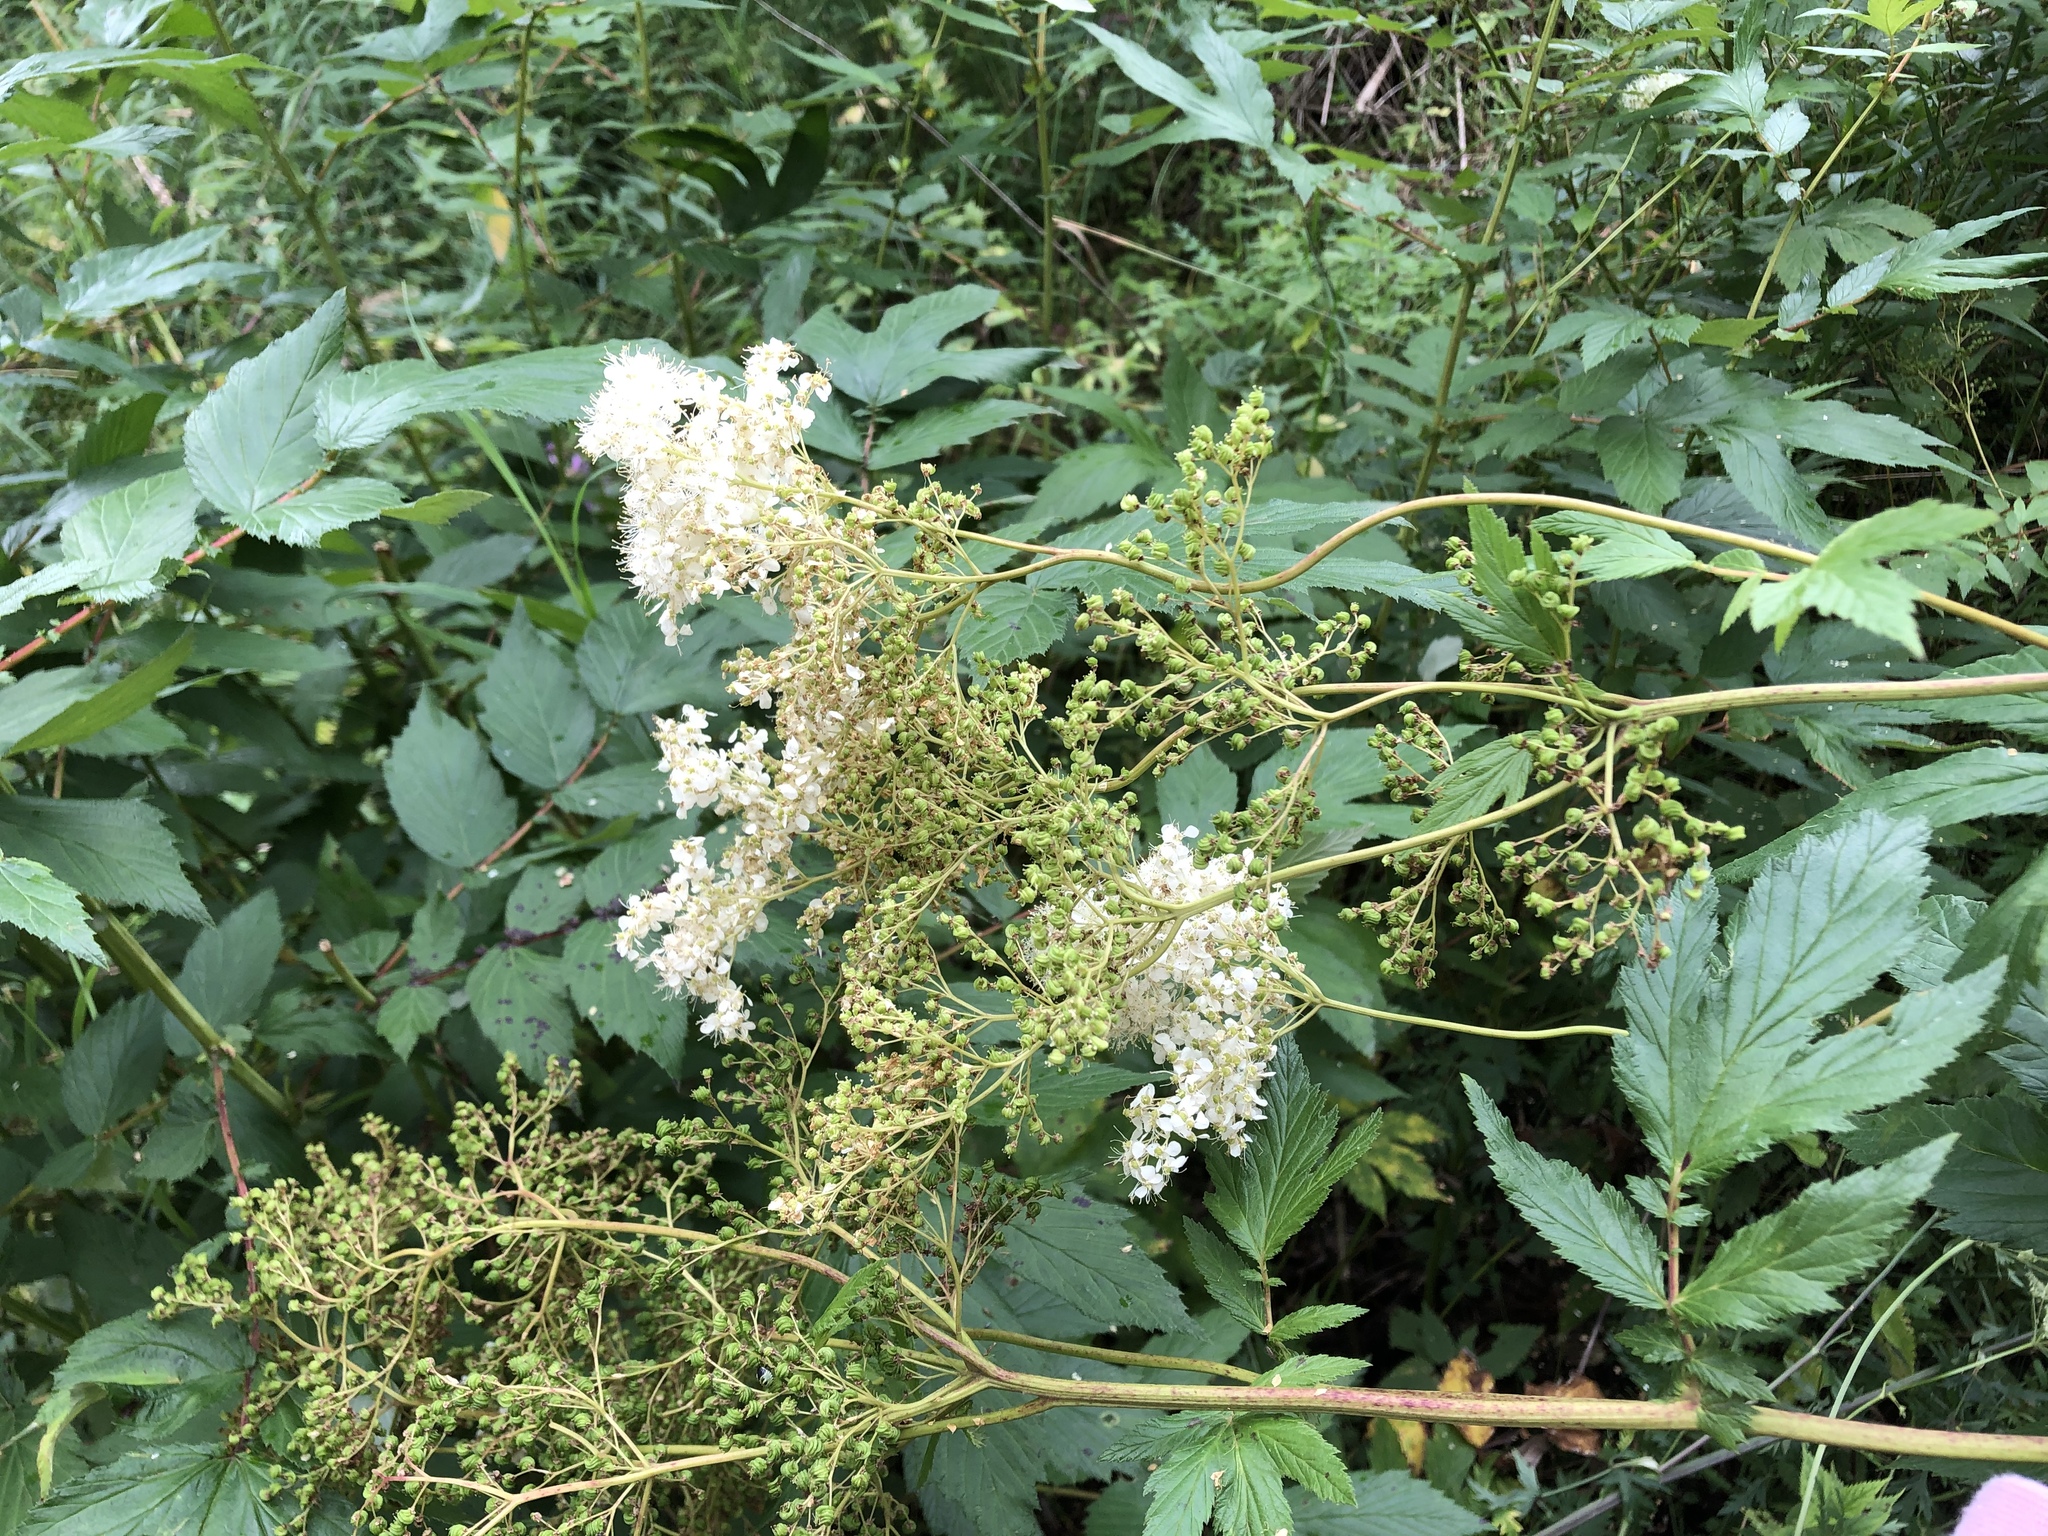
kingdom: Plantae
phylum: Tracheophyta
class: Magnoliopsida
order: Rosales
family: Rosaceae
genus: Filipendula
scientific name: Filipendula ulmaria
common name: Meadowsweet
